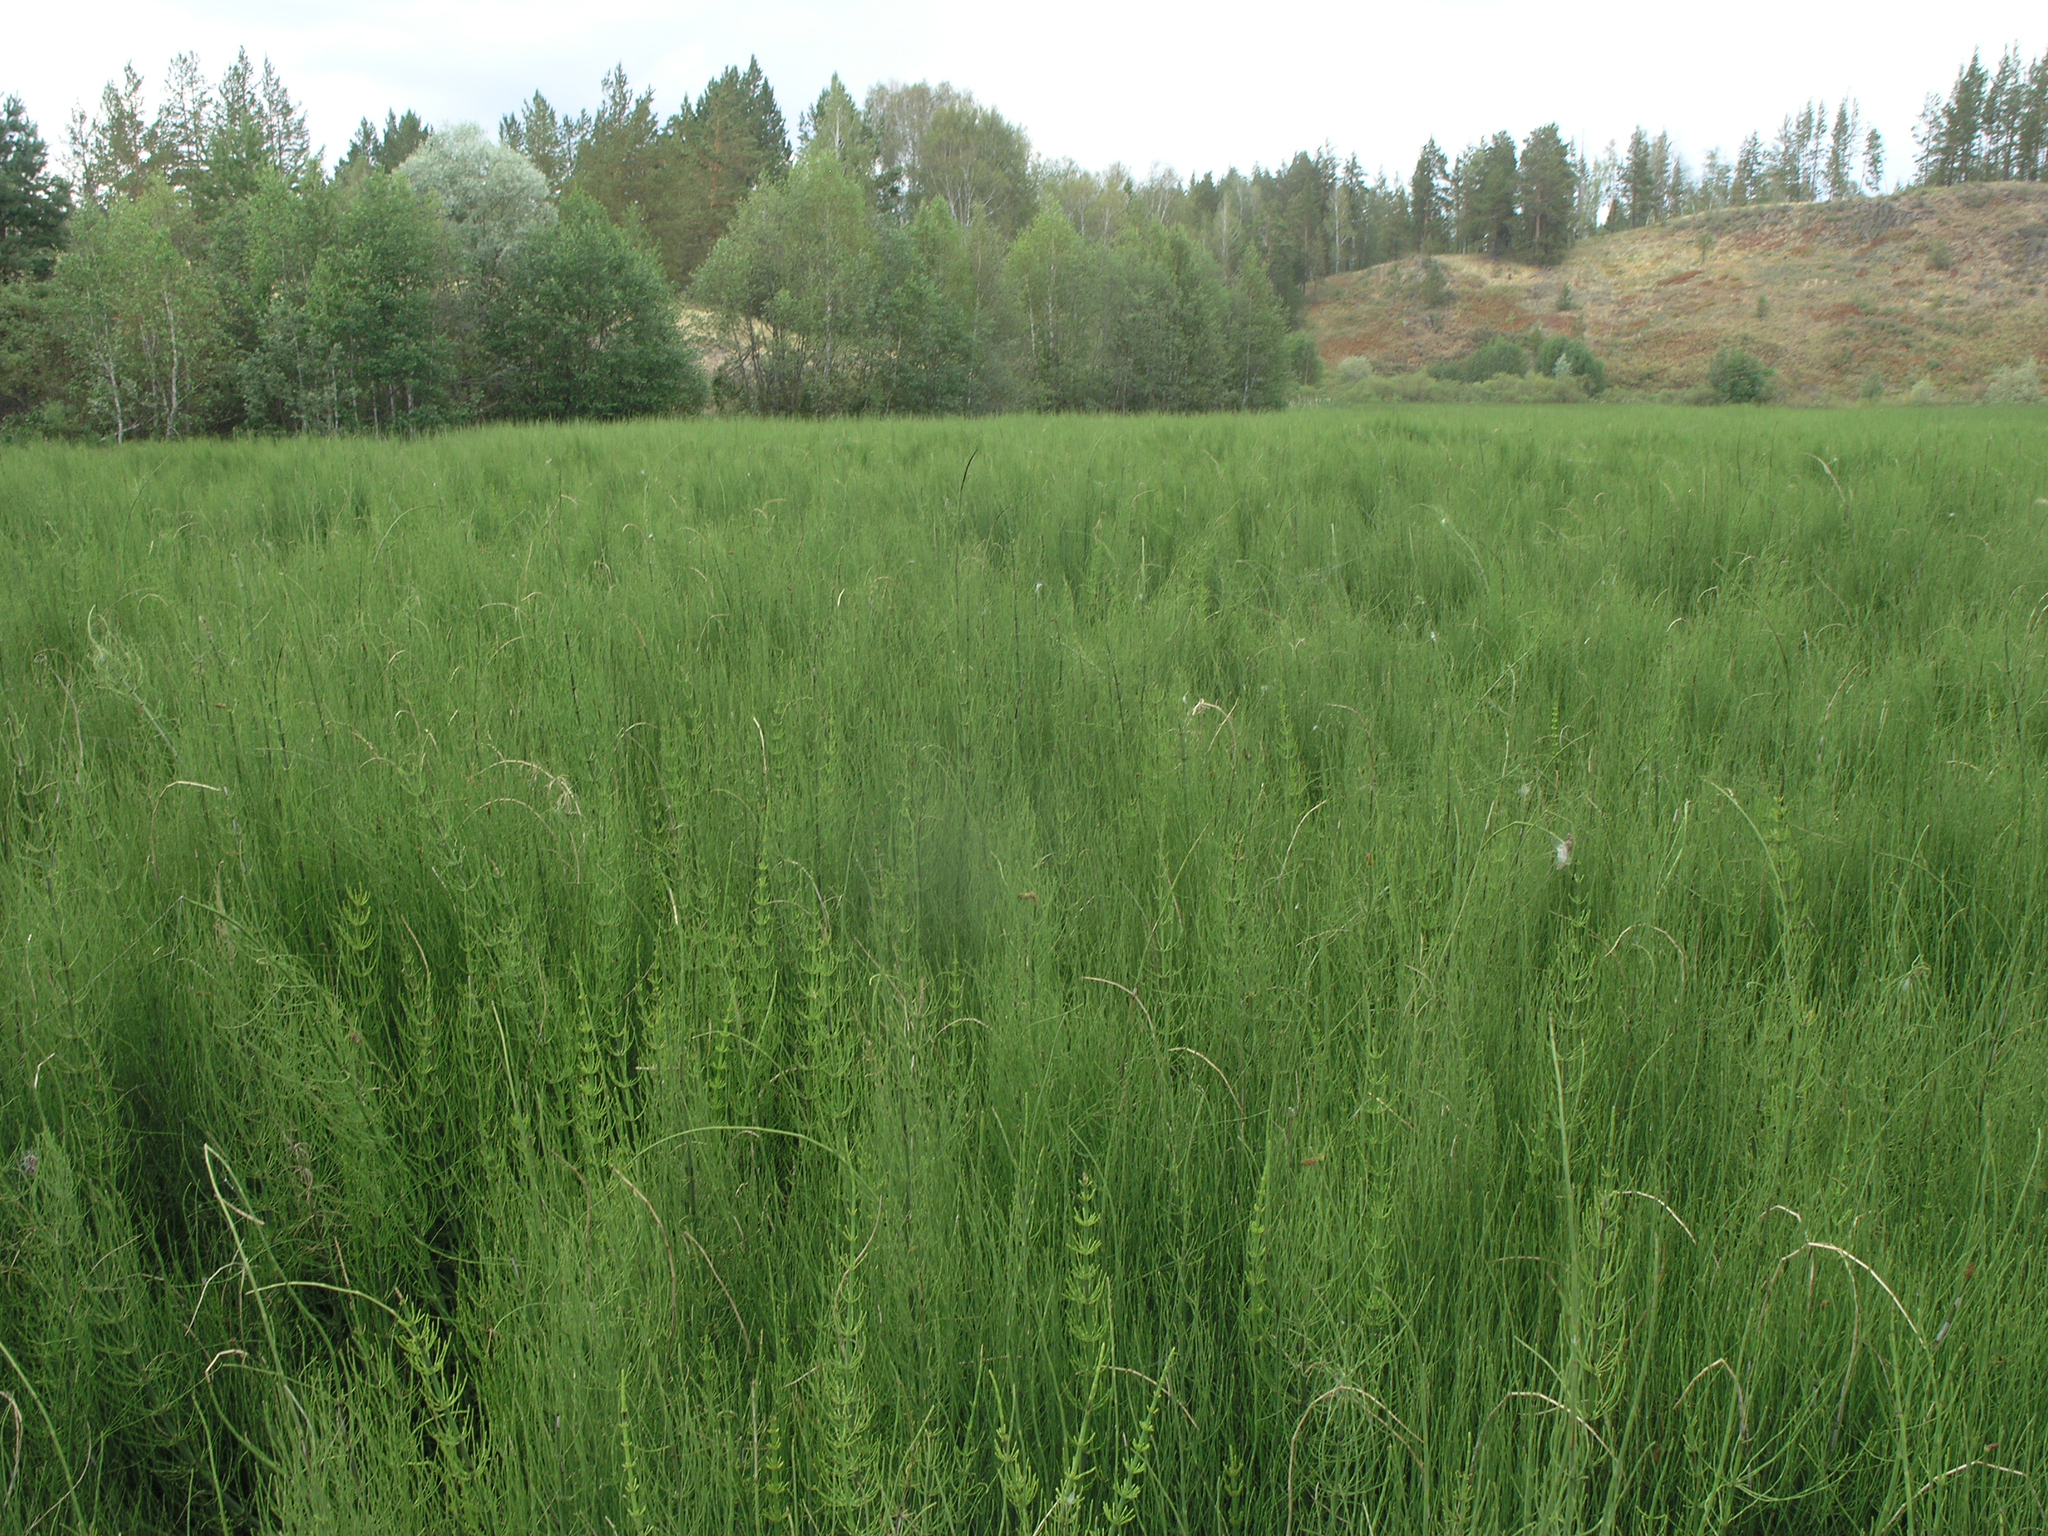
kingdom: Plantae
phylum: Tracheophyta
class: Polypodiopsida
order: Equisetales
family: Equisetaceae
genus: Equisetum
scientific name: Equisetum fluviatile
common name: Water horsetail
